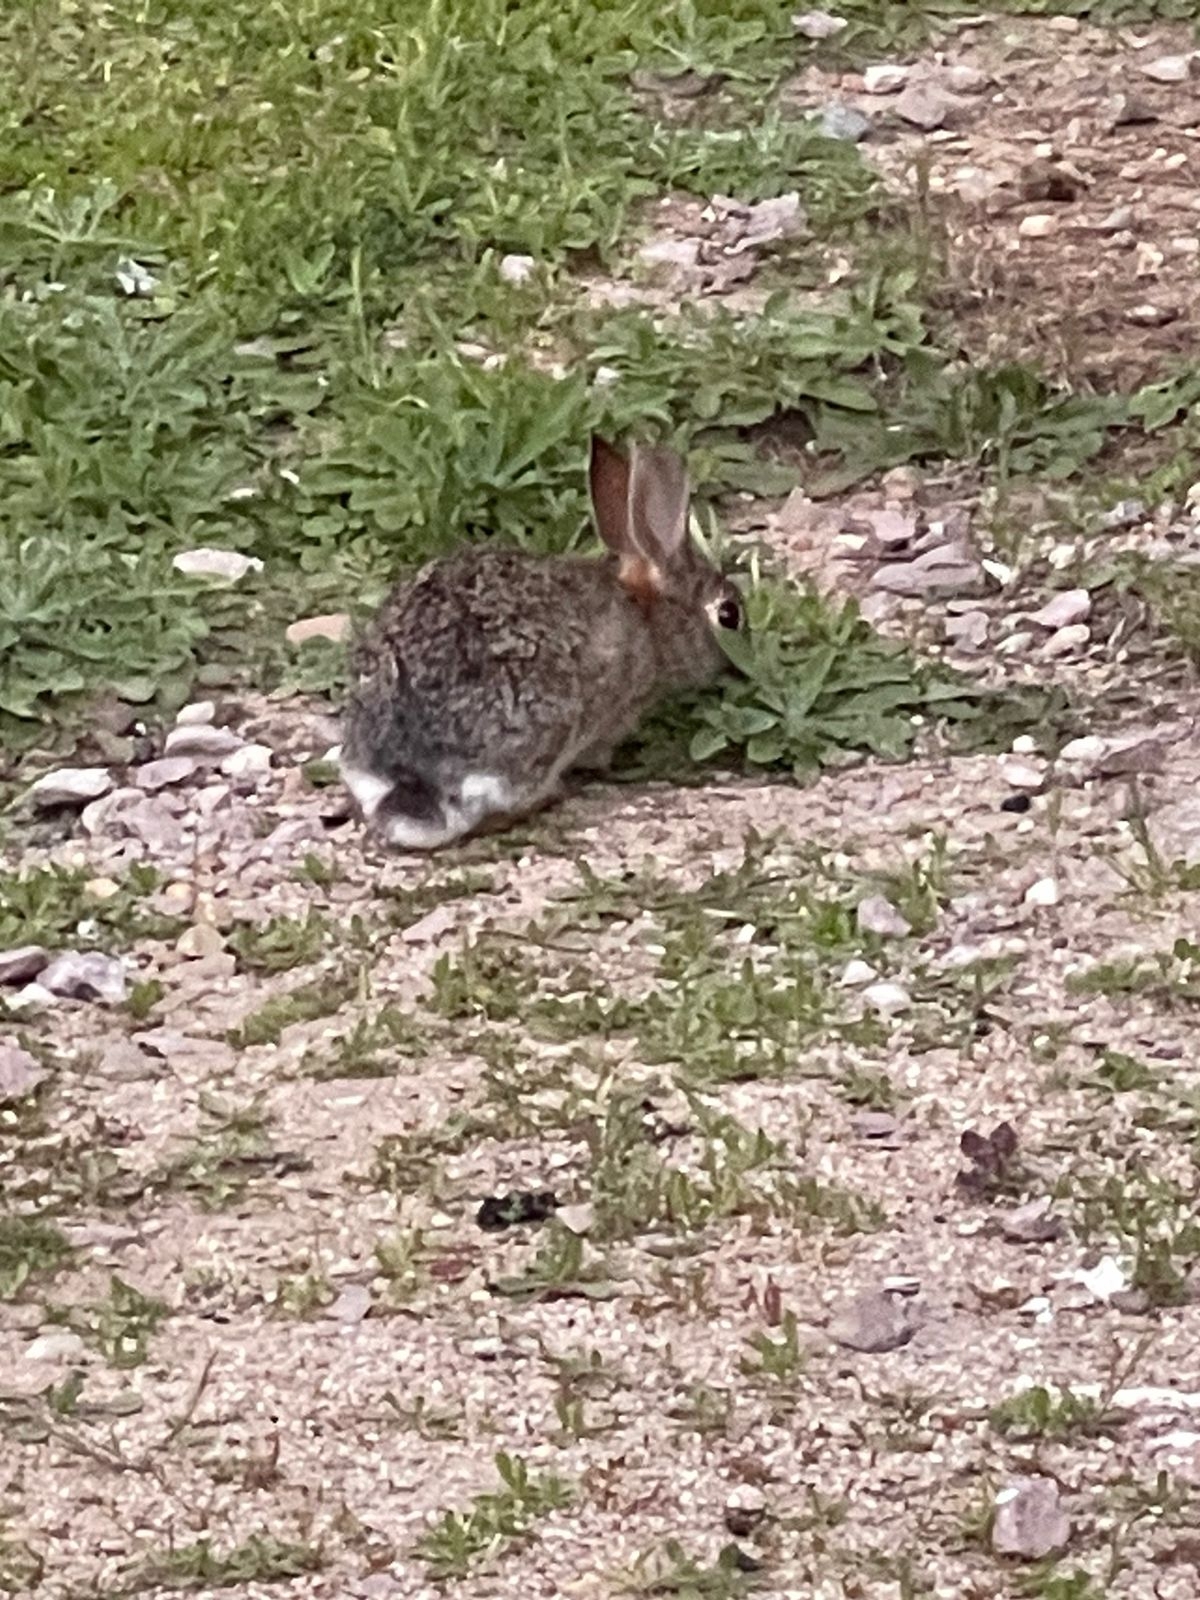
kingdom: Animalia
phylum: Chordata
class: Mammalia
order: Lagomorpha
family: Leporidae
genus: Sylvilagus
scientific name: Sylvilagus bachmani
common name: Brush rabbit
